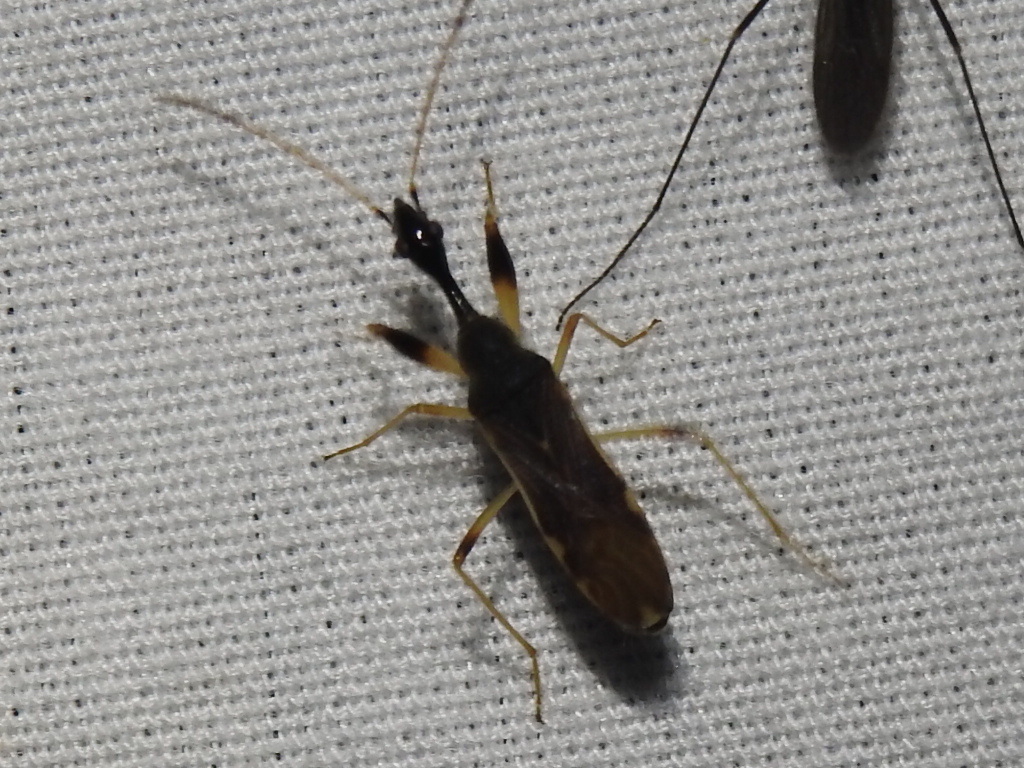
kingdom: Animalia
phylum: Arthropoda
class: Insecta
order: Hemiptera
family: Rhyparochromidae
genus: Myodocha
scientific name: Myodocha serripes
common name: Long-necked seed bug
